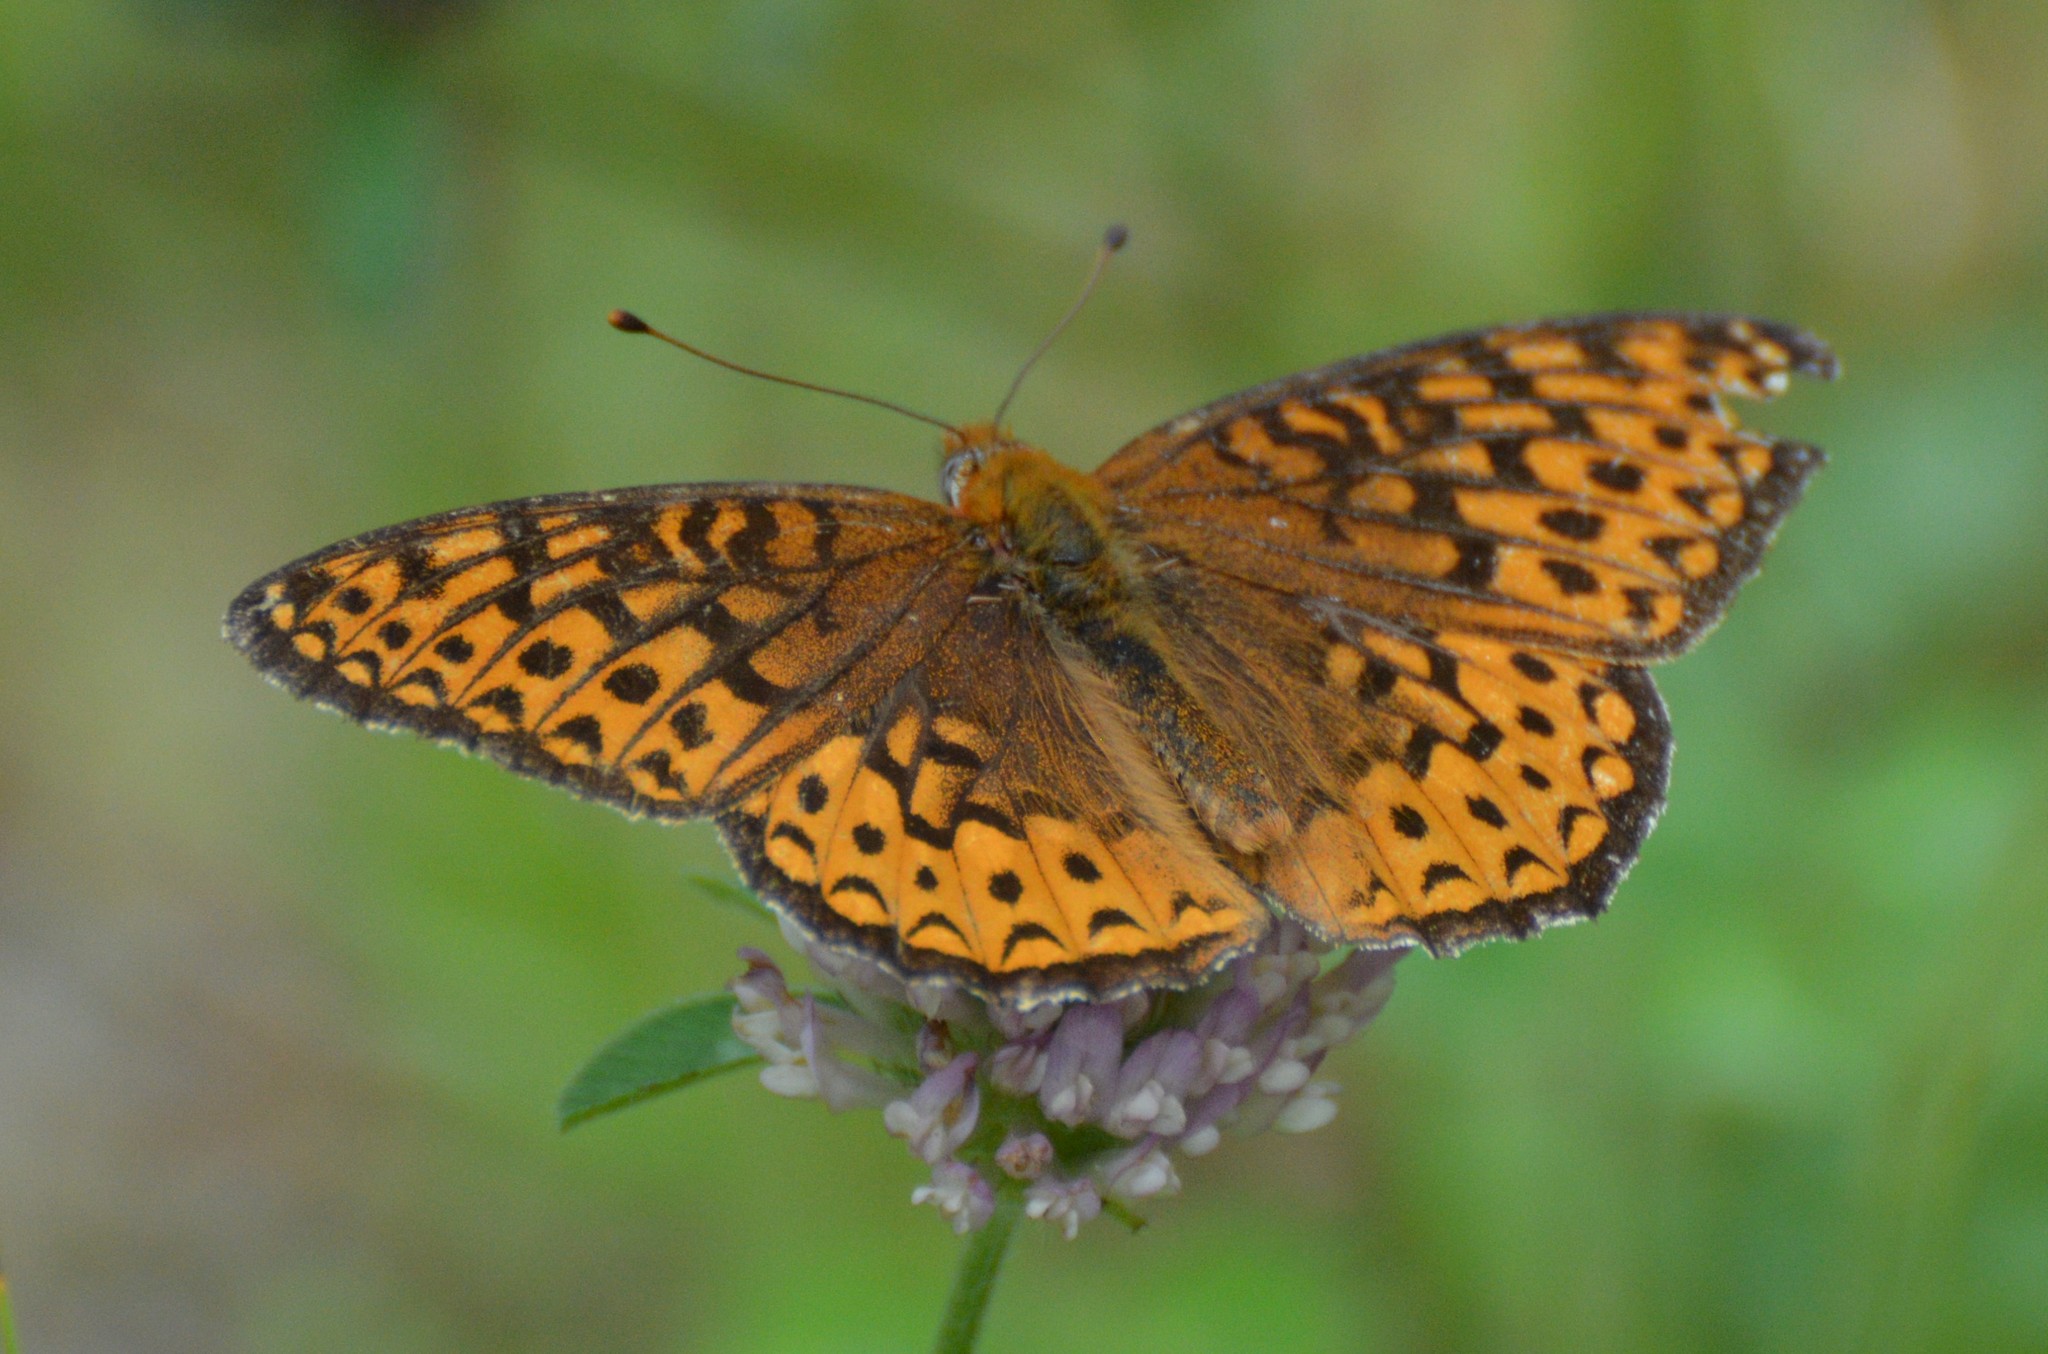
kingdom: Animalia
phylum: Arthropoda
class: Insecta
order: Lepidoptera
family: Nymphalidae
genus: Speyeria
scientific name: Speyeria atlantis
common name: Atlantis fritillary
